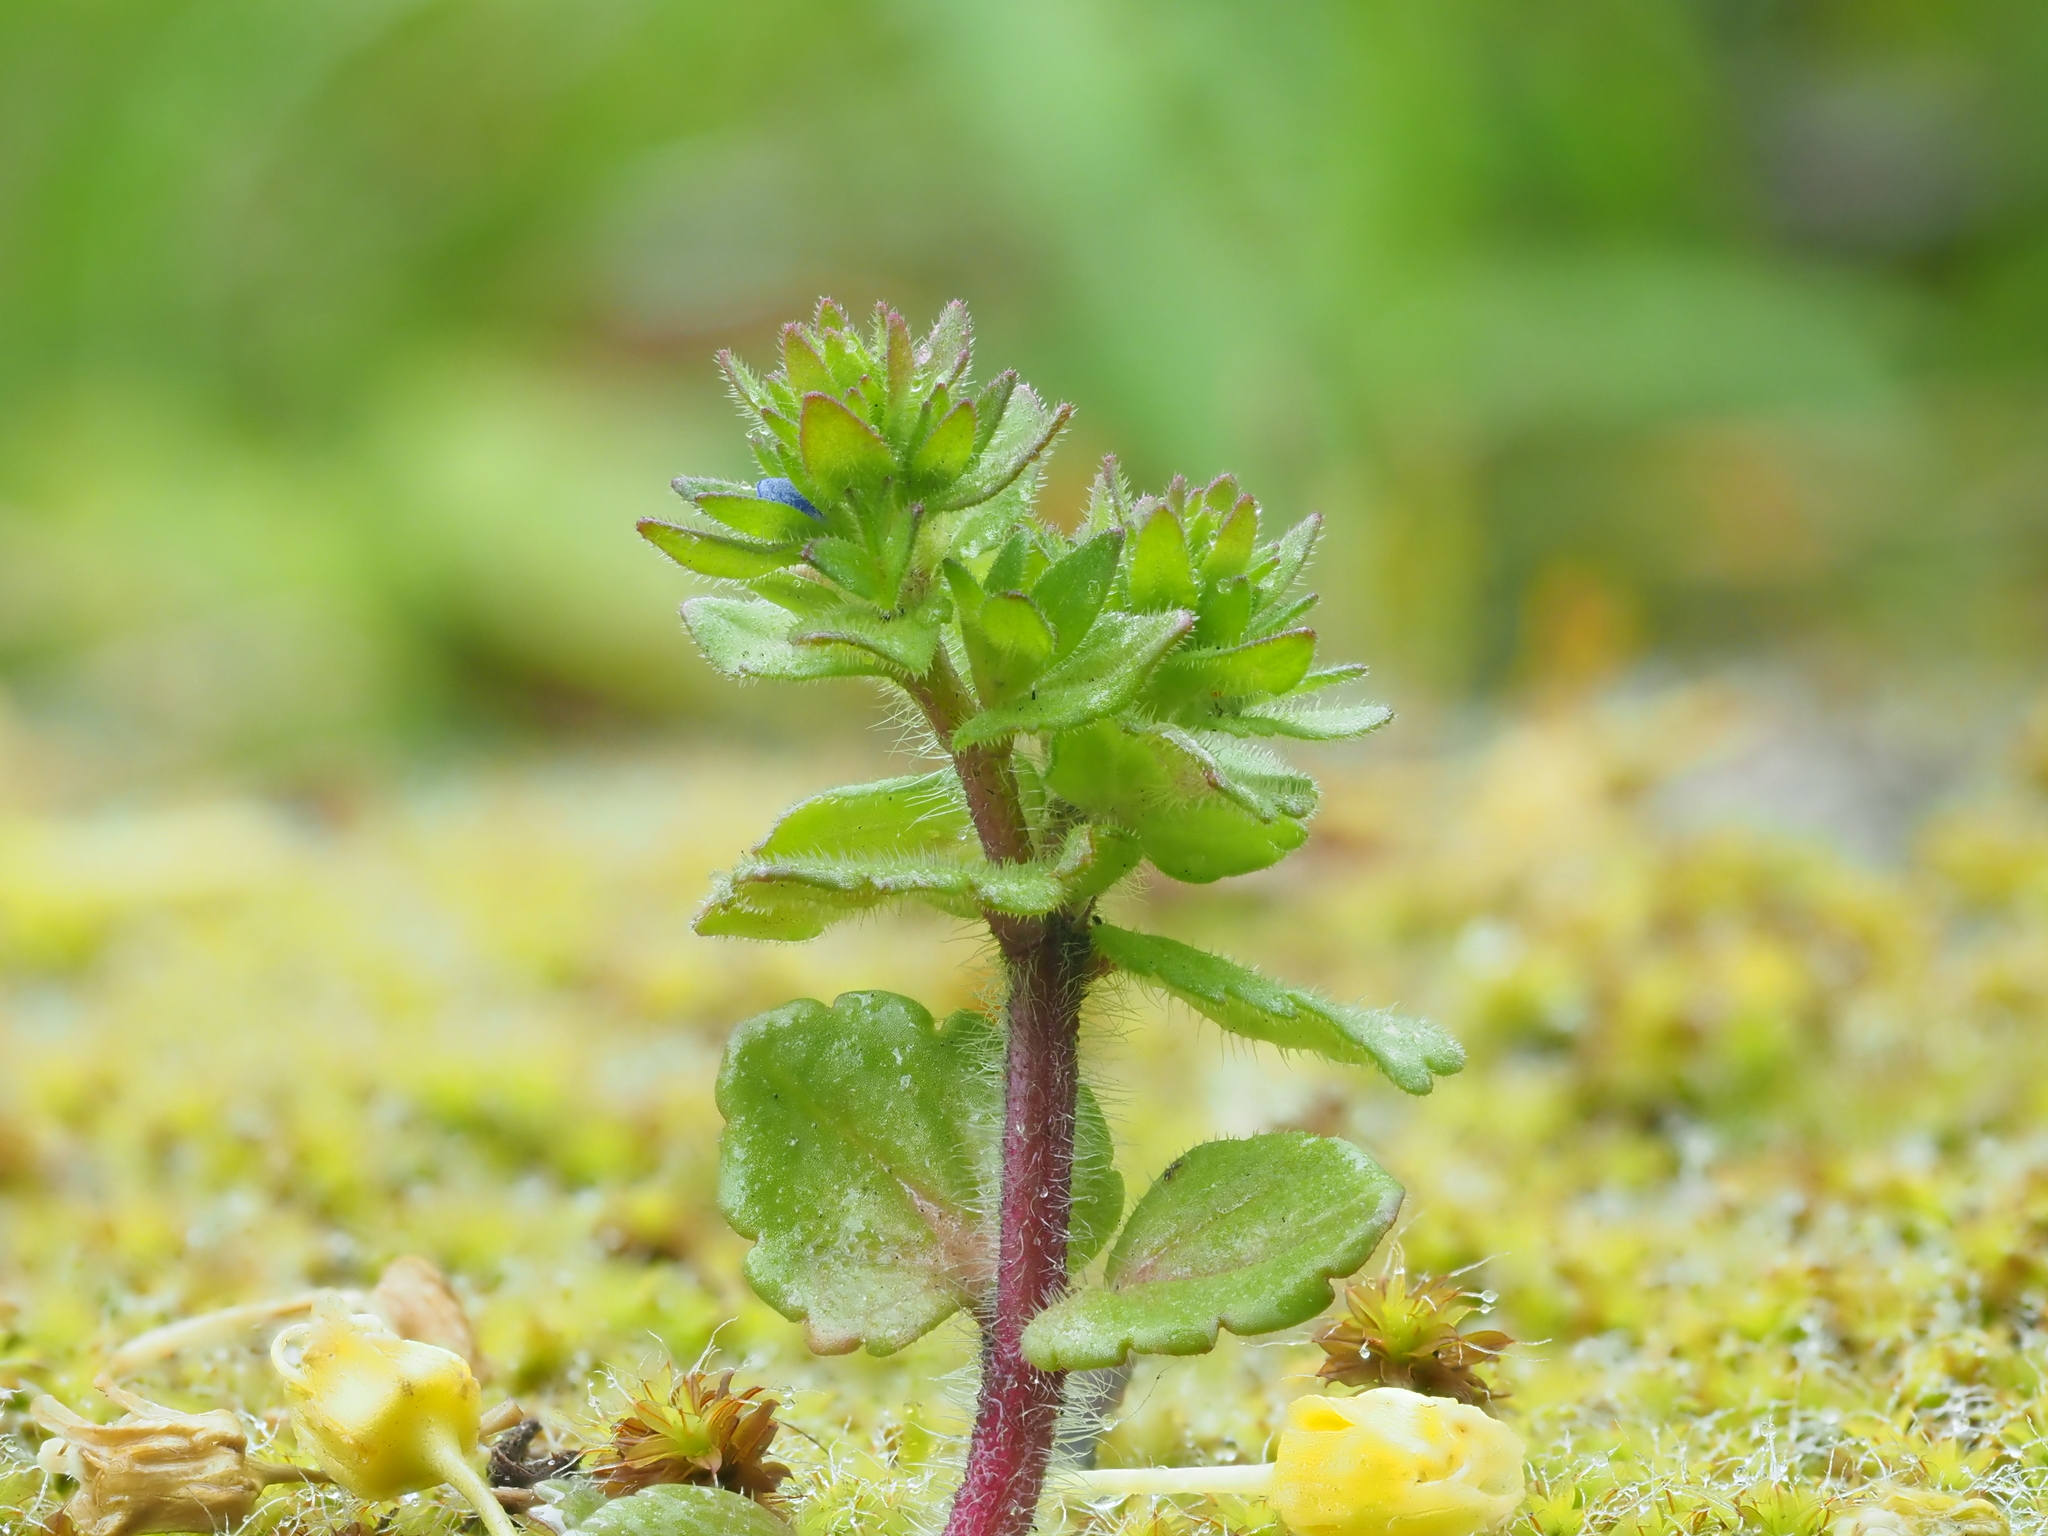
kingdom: Plantae
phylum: Tracheophyta
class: Magnoliopsida
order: Lamiales
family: Plantaginaceae
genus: Veronica
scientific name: Veronica arvensis
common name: Corn speedwell
